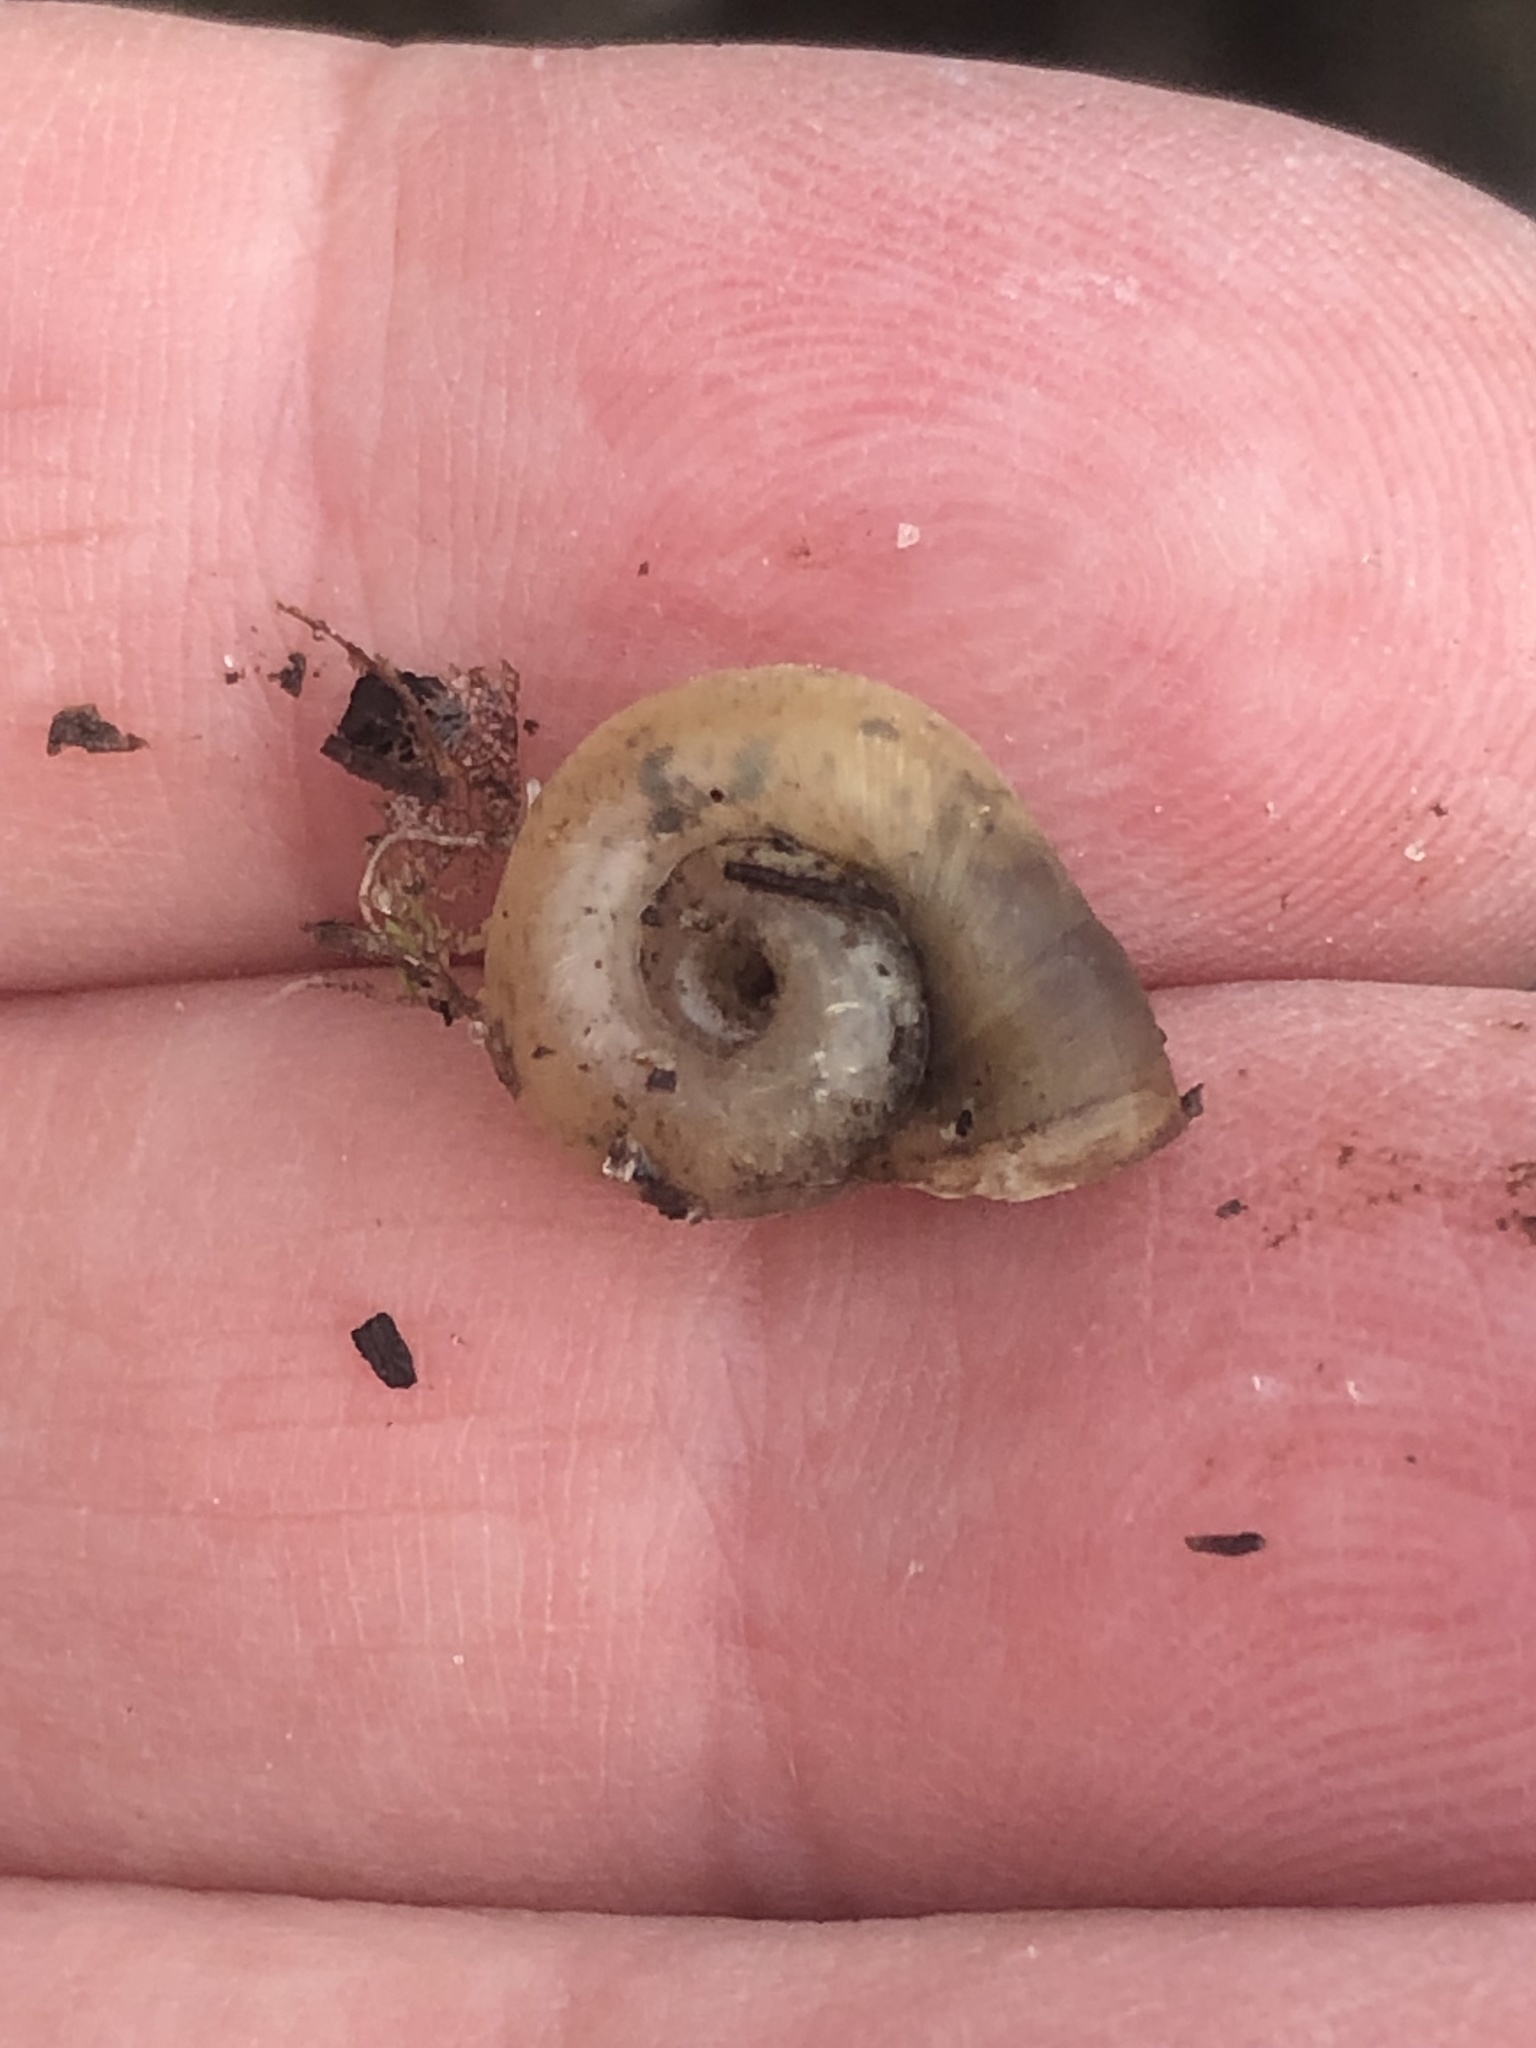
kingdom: Animalia
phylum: Mollusca
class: Gastropoda
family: Planorbidae
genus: Planorbella
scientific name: Planorbella trivolvis
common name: Marsh rams-horn
